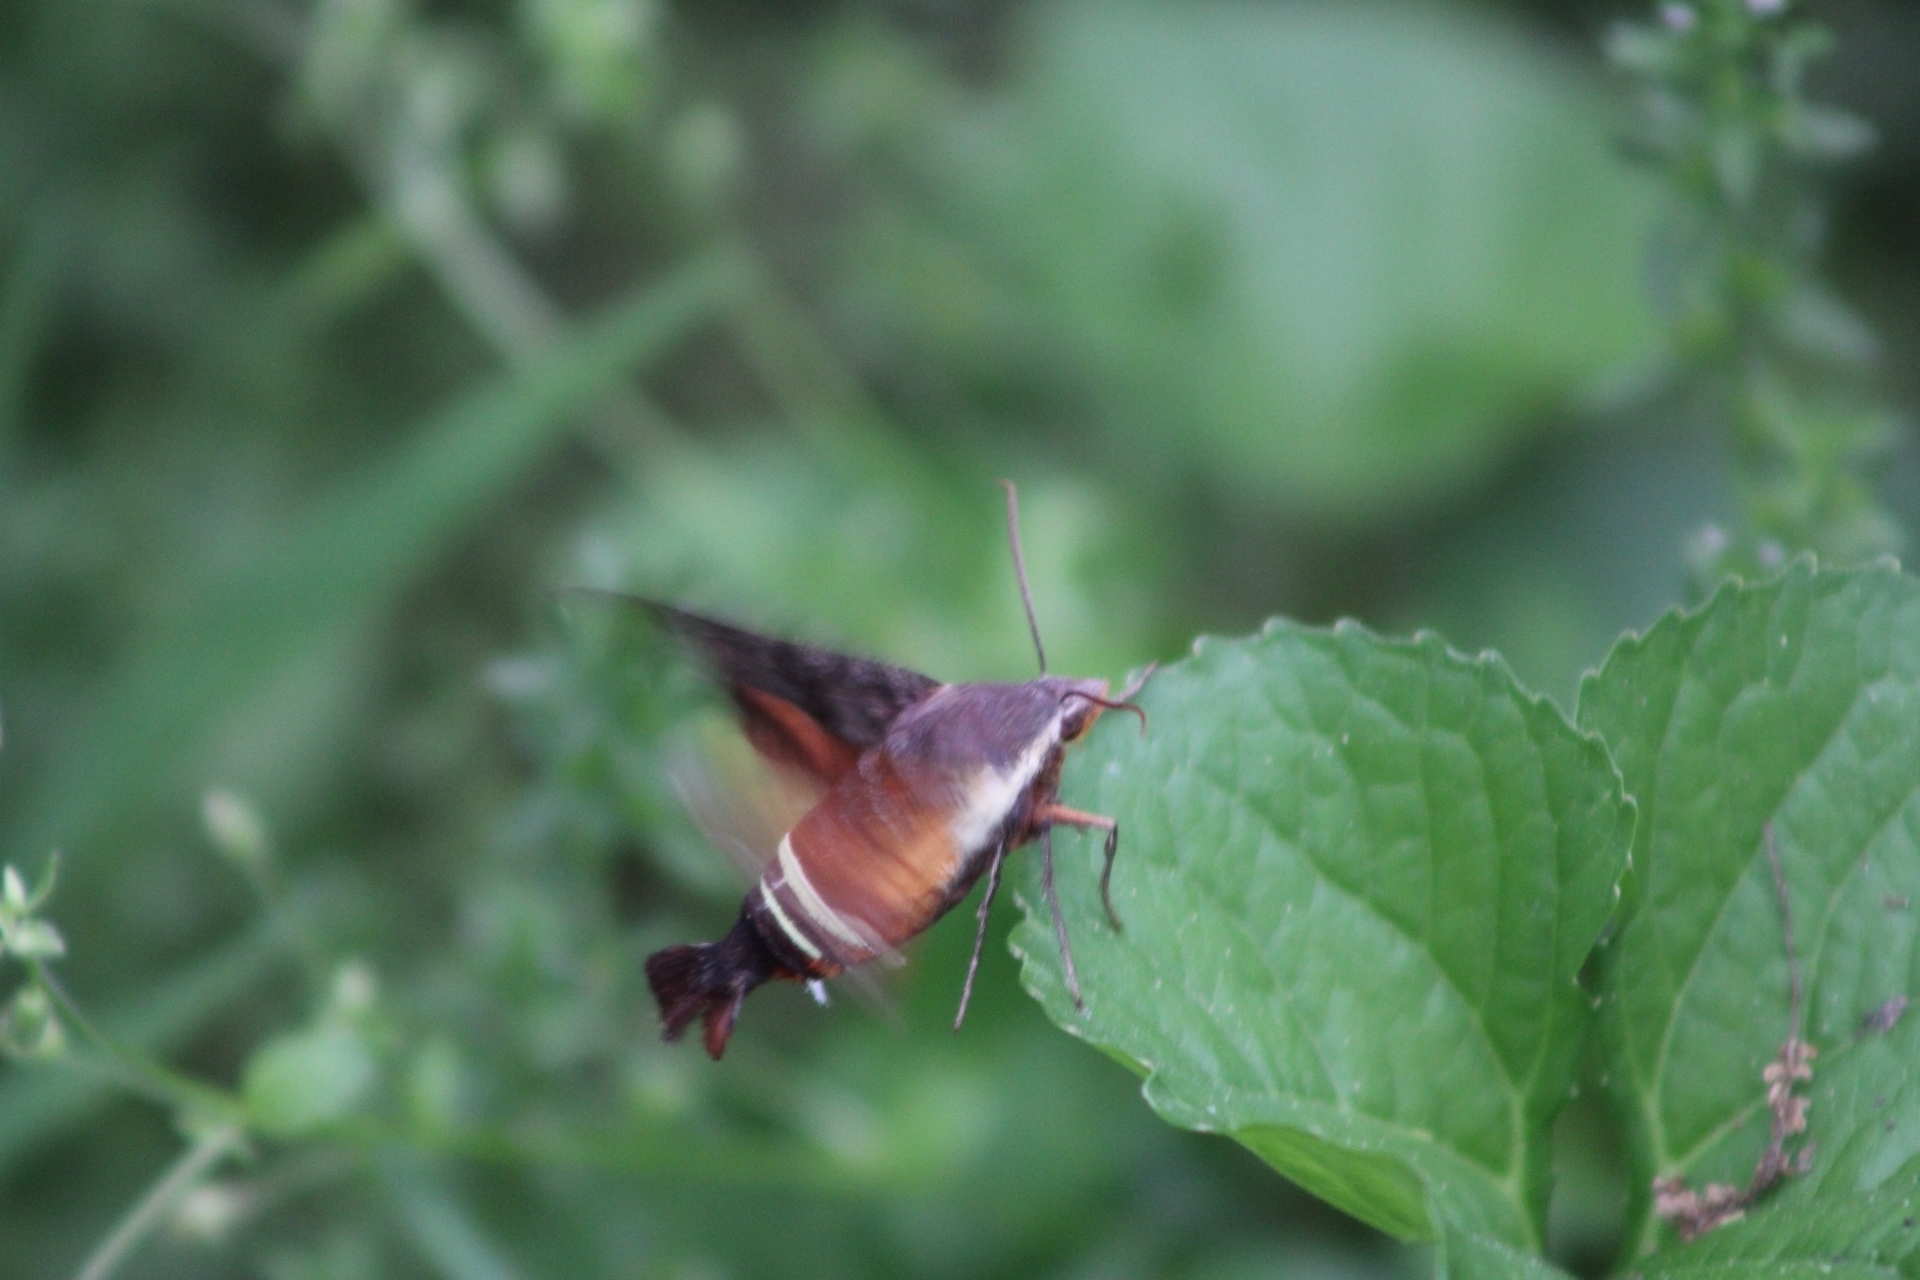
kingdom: Animalia
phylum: Arthropoda
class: Insecta
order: Lepidoptera
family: Sphingidae
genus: Amphion
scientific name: Amphion floridensis
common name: Nessus sphinx
